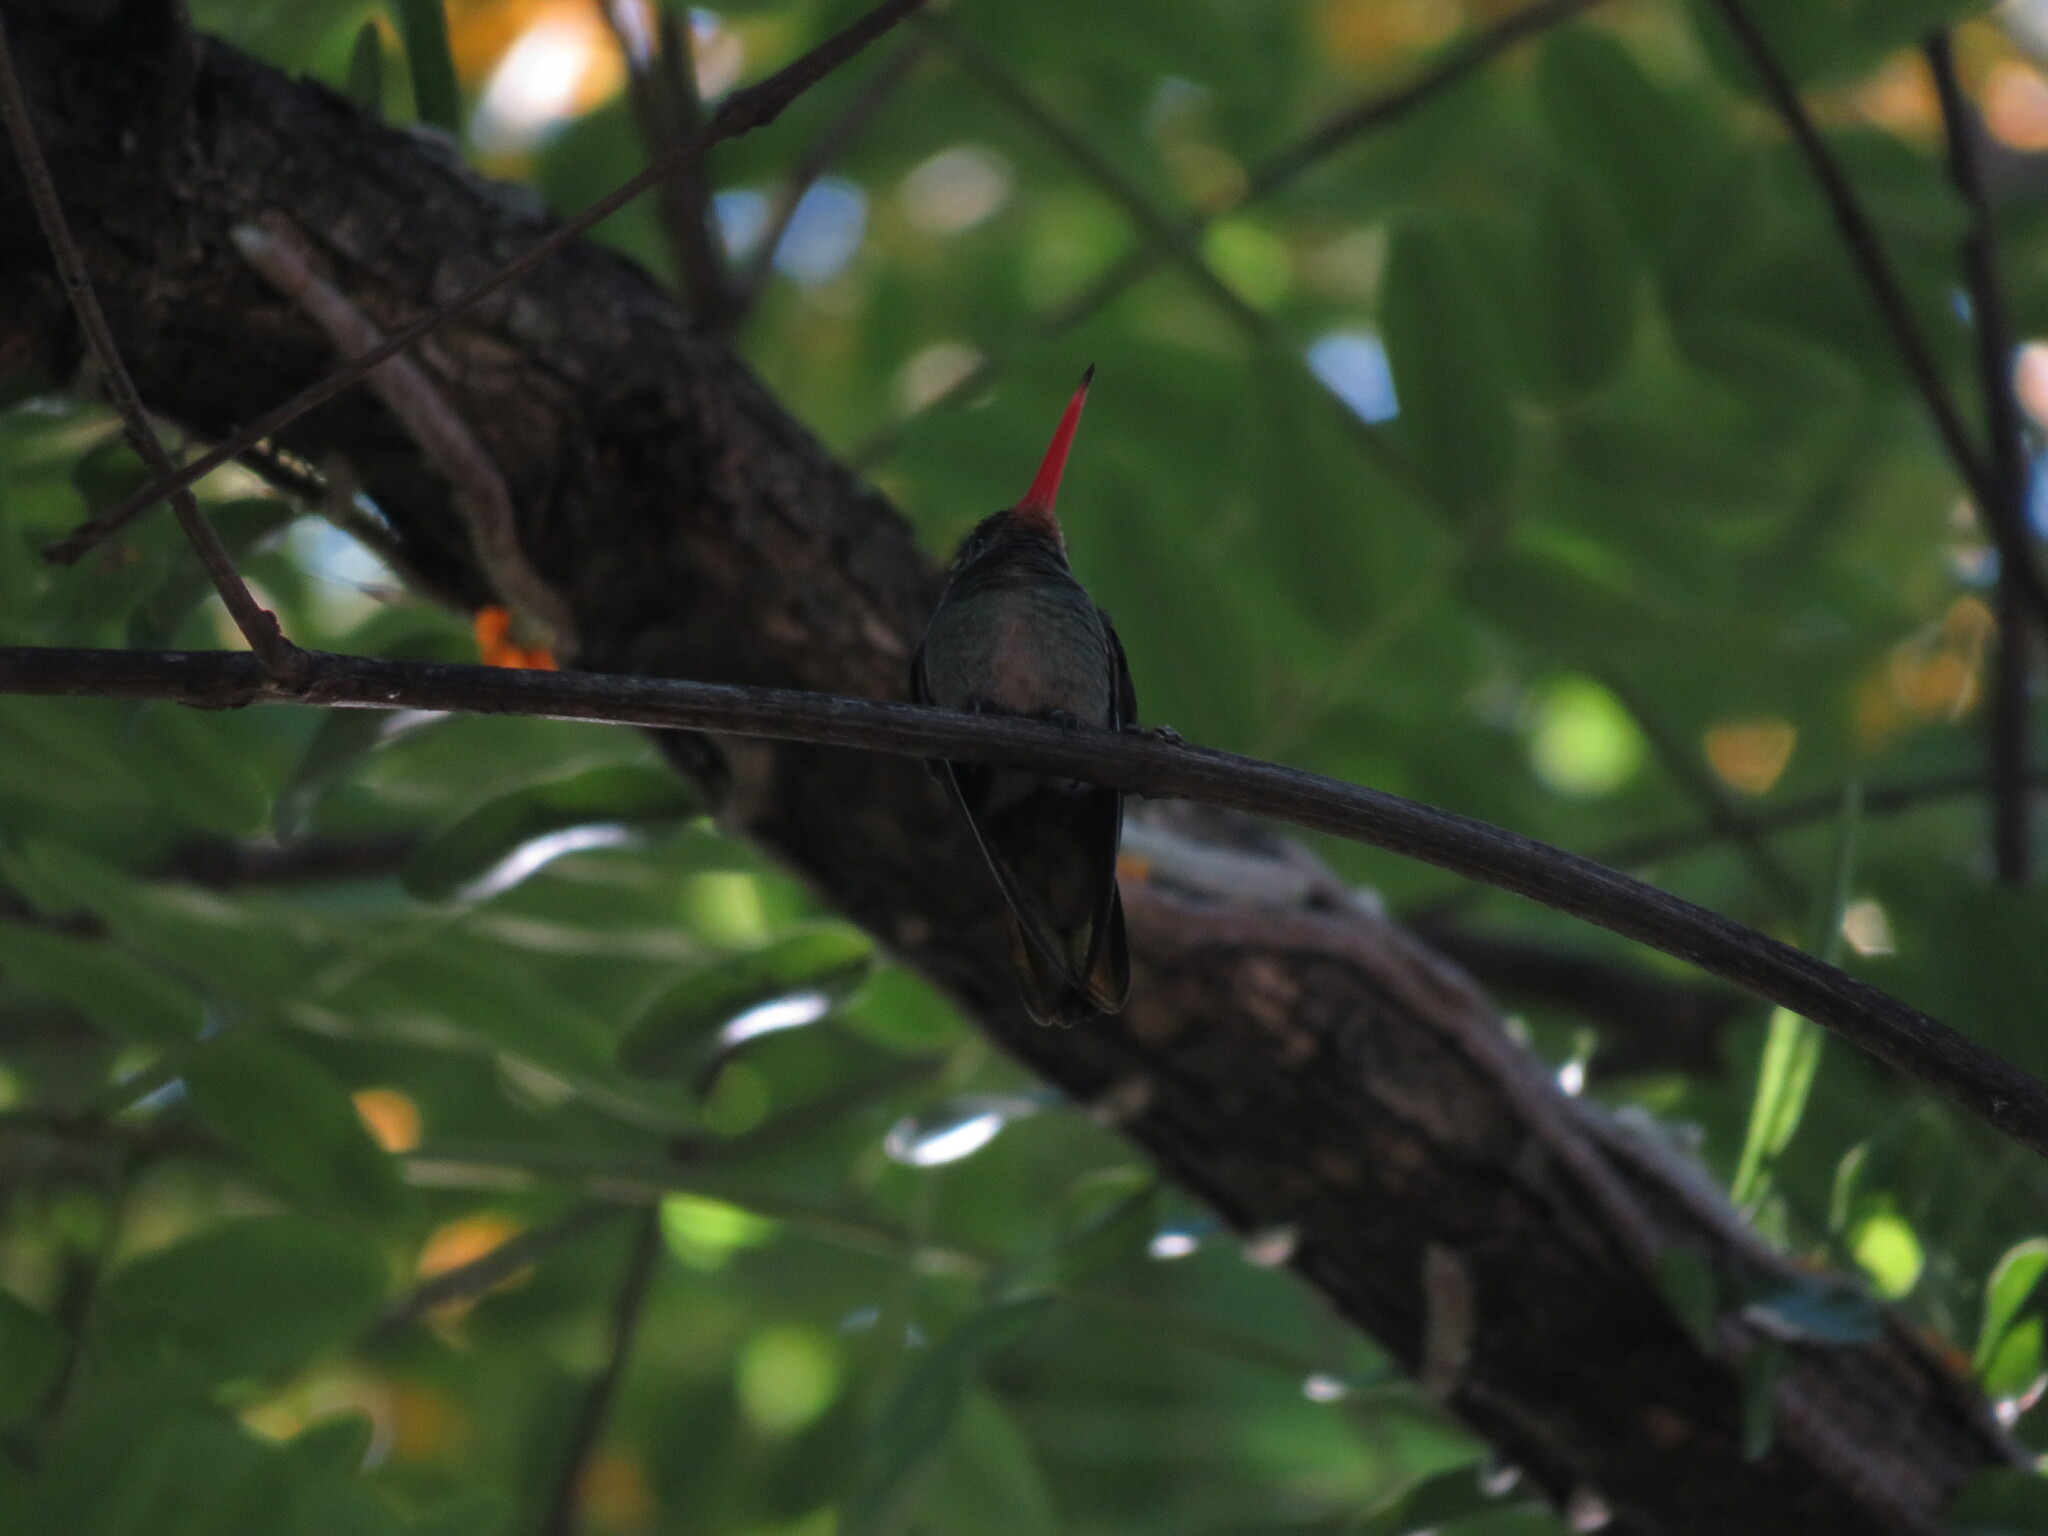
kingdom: Animalia
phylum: Chordata
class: Aves
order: Apodiformes
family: Trochilidae
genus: Hylocharis
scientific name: Hylocharis chrysura
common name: Gilded sapphire
